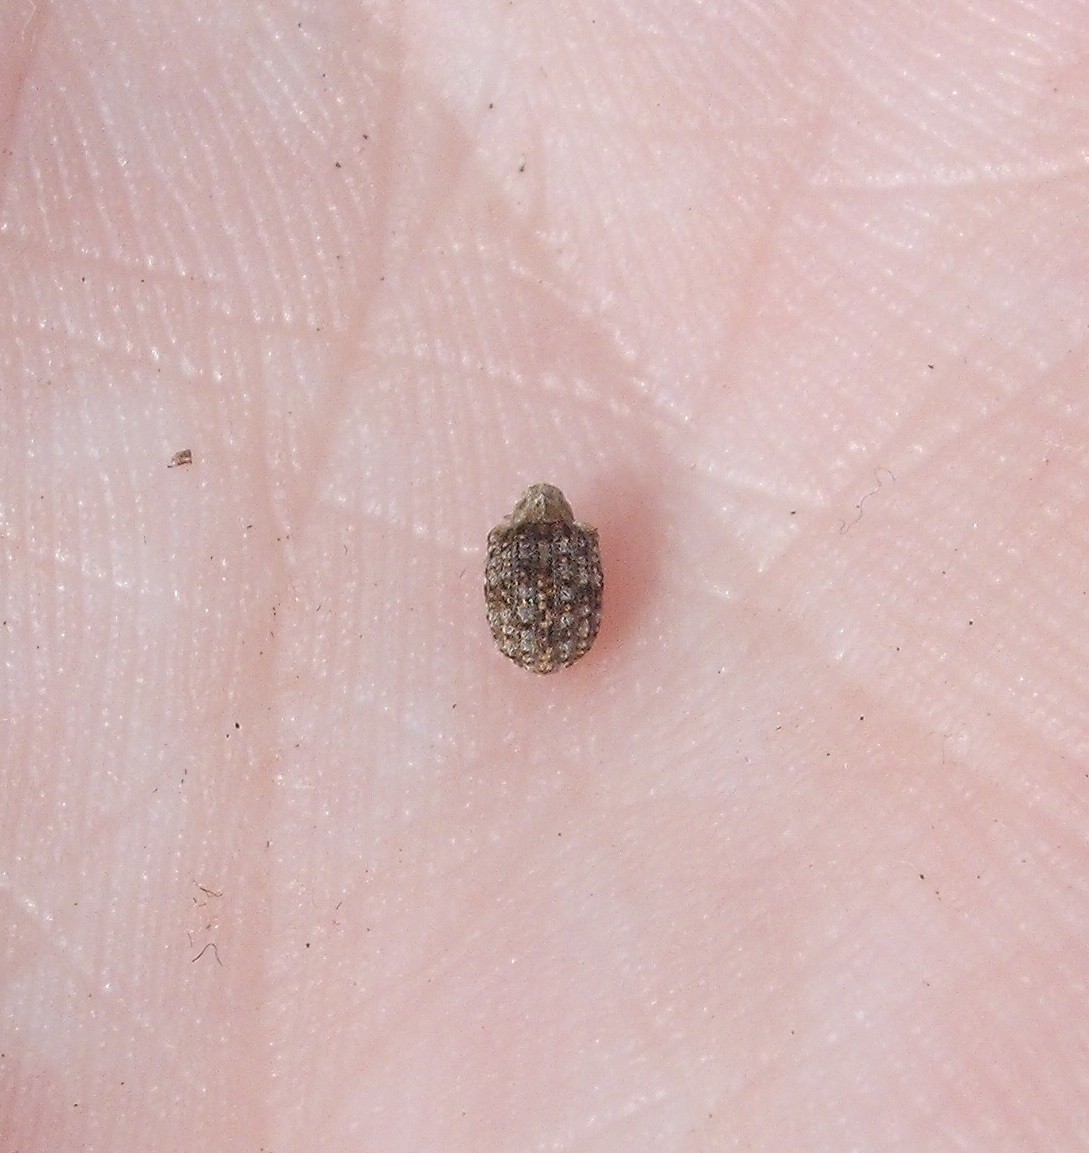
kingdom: Animalia
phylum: Arthropoda
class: Insecta
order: Coleoptera
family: Curculionidae
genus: Cleopus
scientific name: Cleopus japonicus
